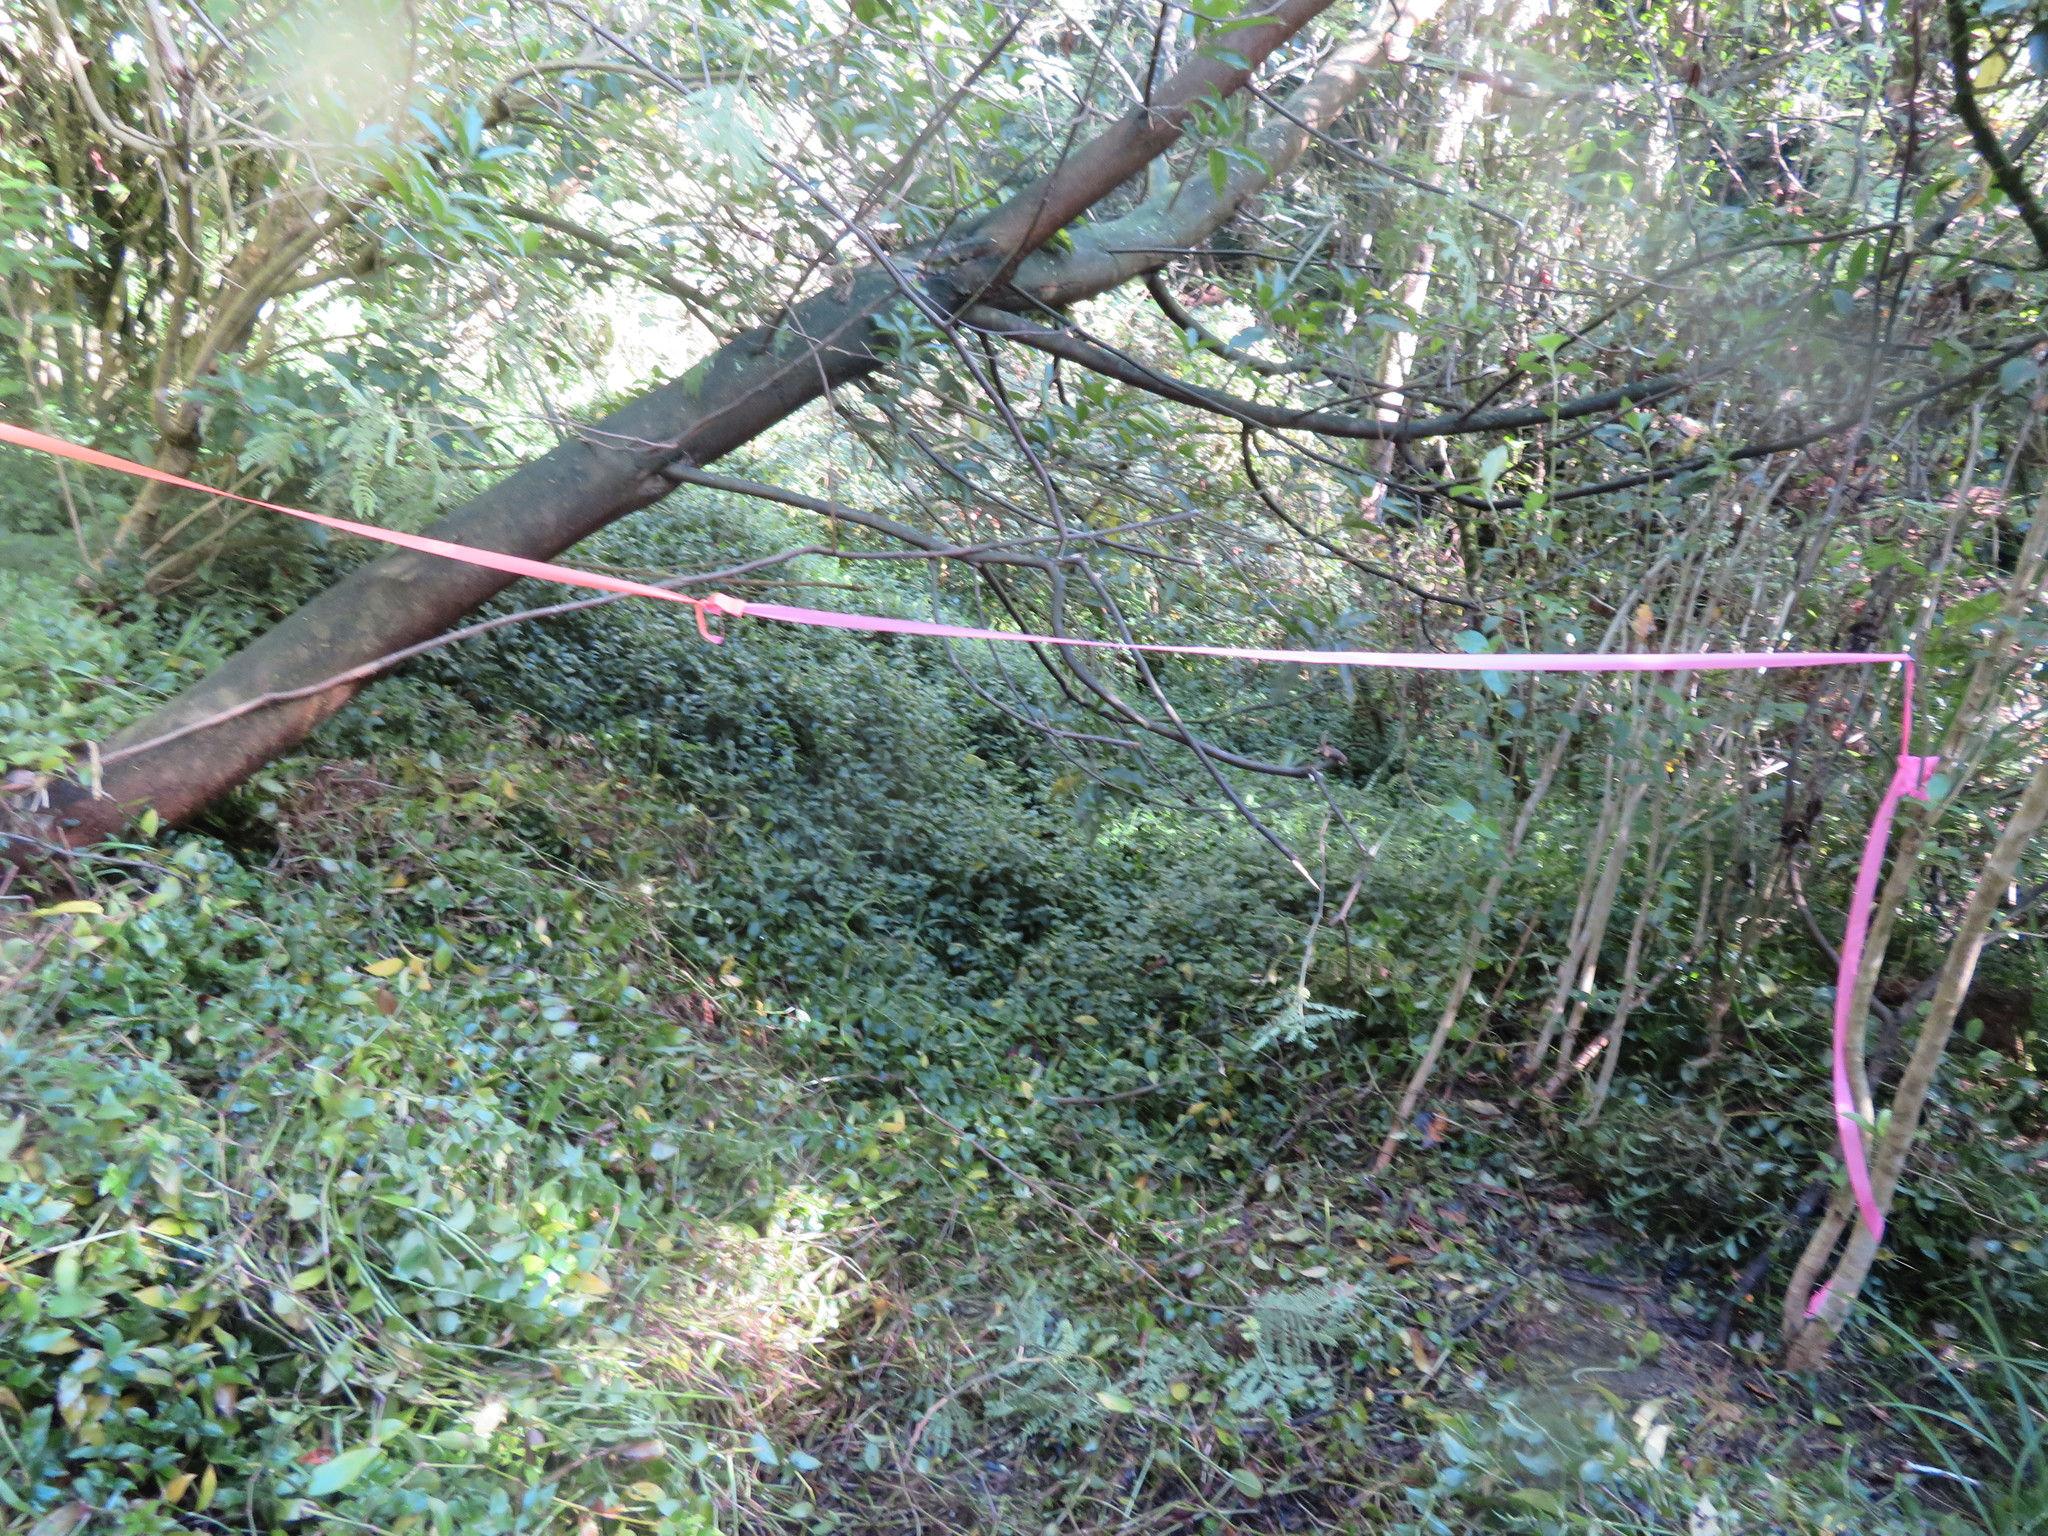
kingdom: Plantae
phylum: Tracheophyta
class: Liliopsida
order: Commelinales
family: Commelinaceae
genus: Tradescantia
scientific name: Tradescantia fluminensis
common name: Wandering-jew
